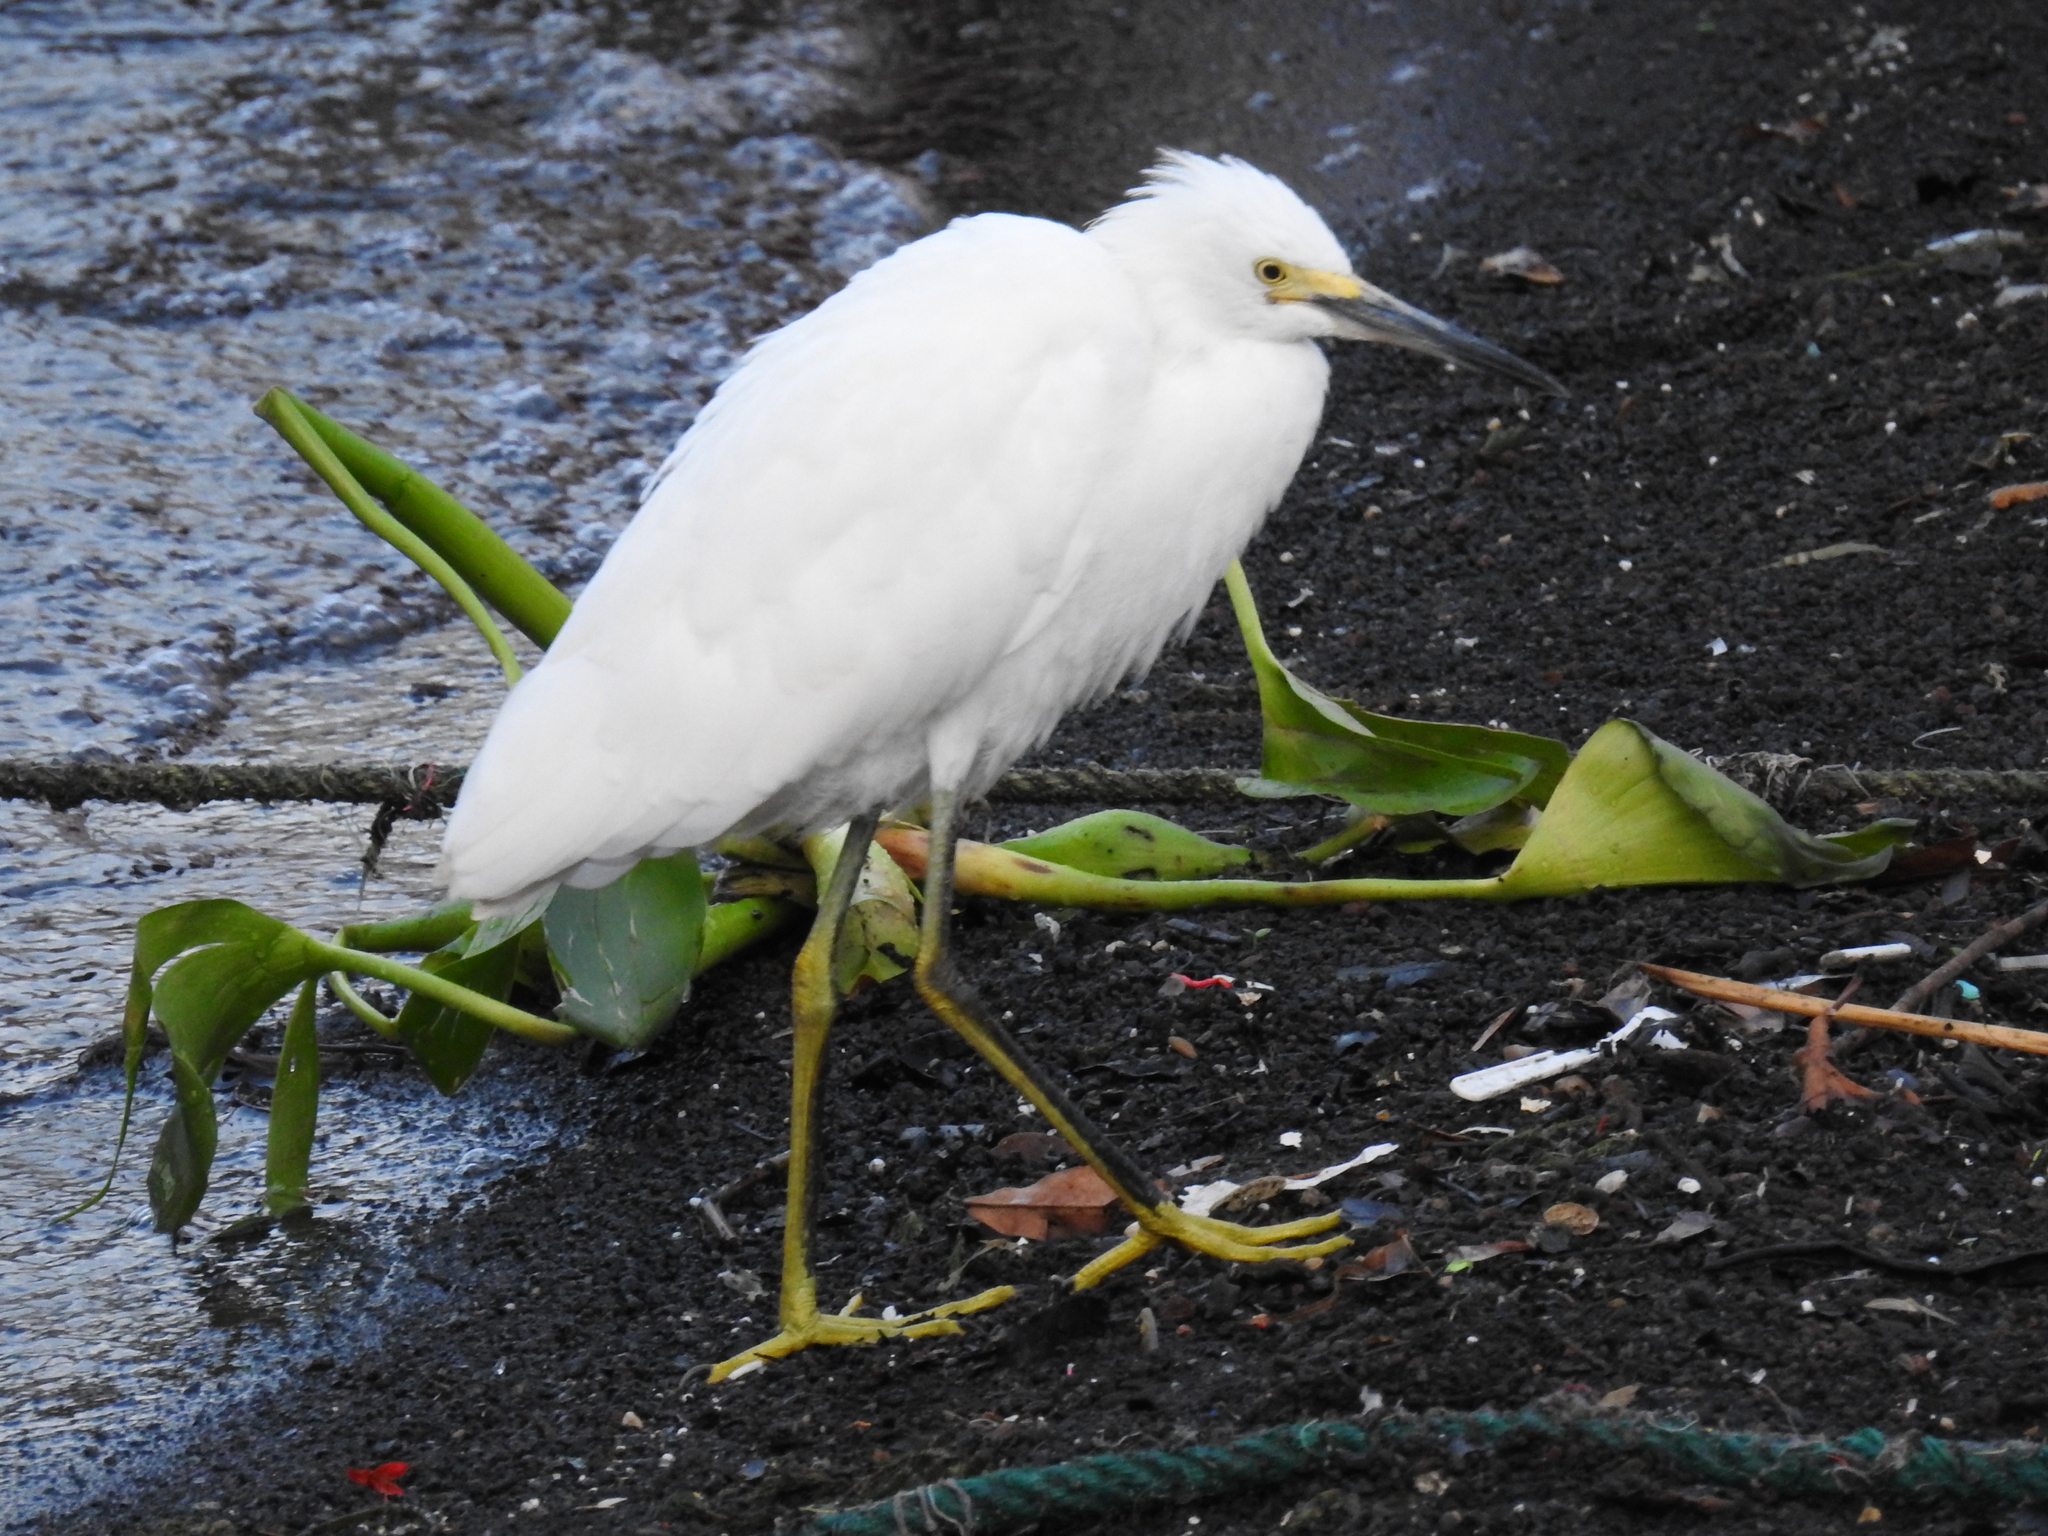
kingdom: Animalia
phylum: Chordata
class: Aves
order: Pelecaniformes
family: Ardeidae
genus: Egretta
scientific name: Egretta thula
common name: Snowy egret
